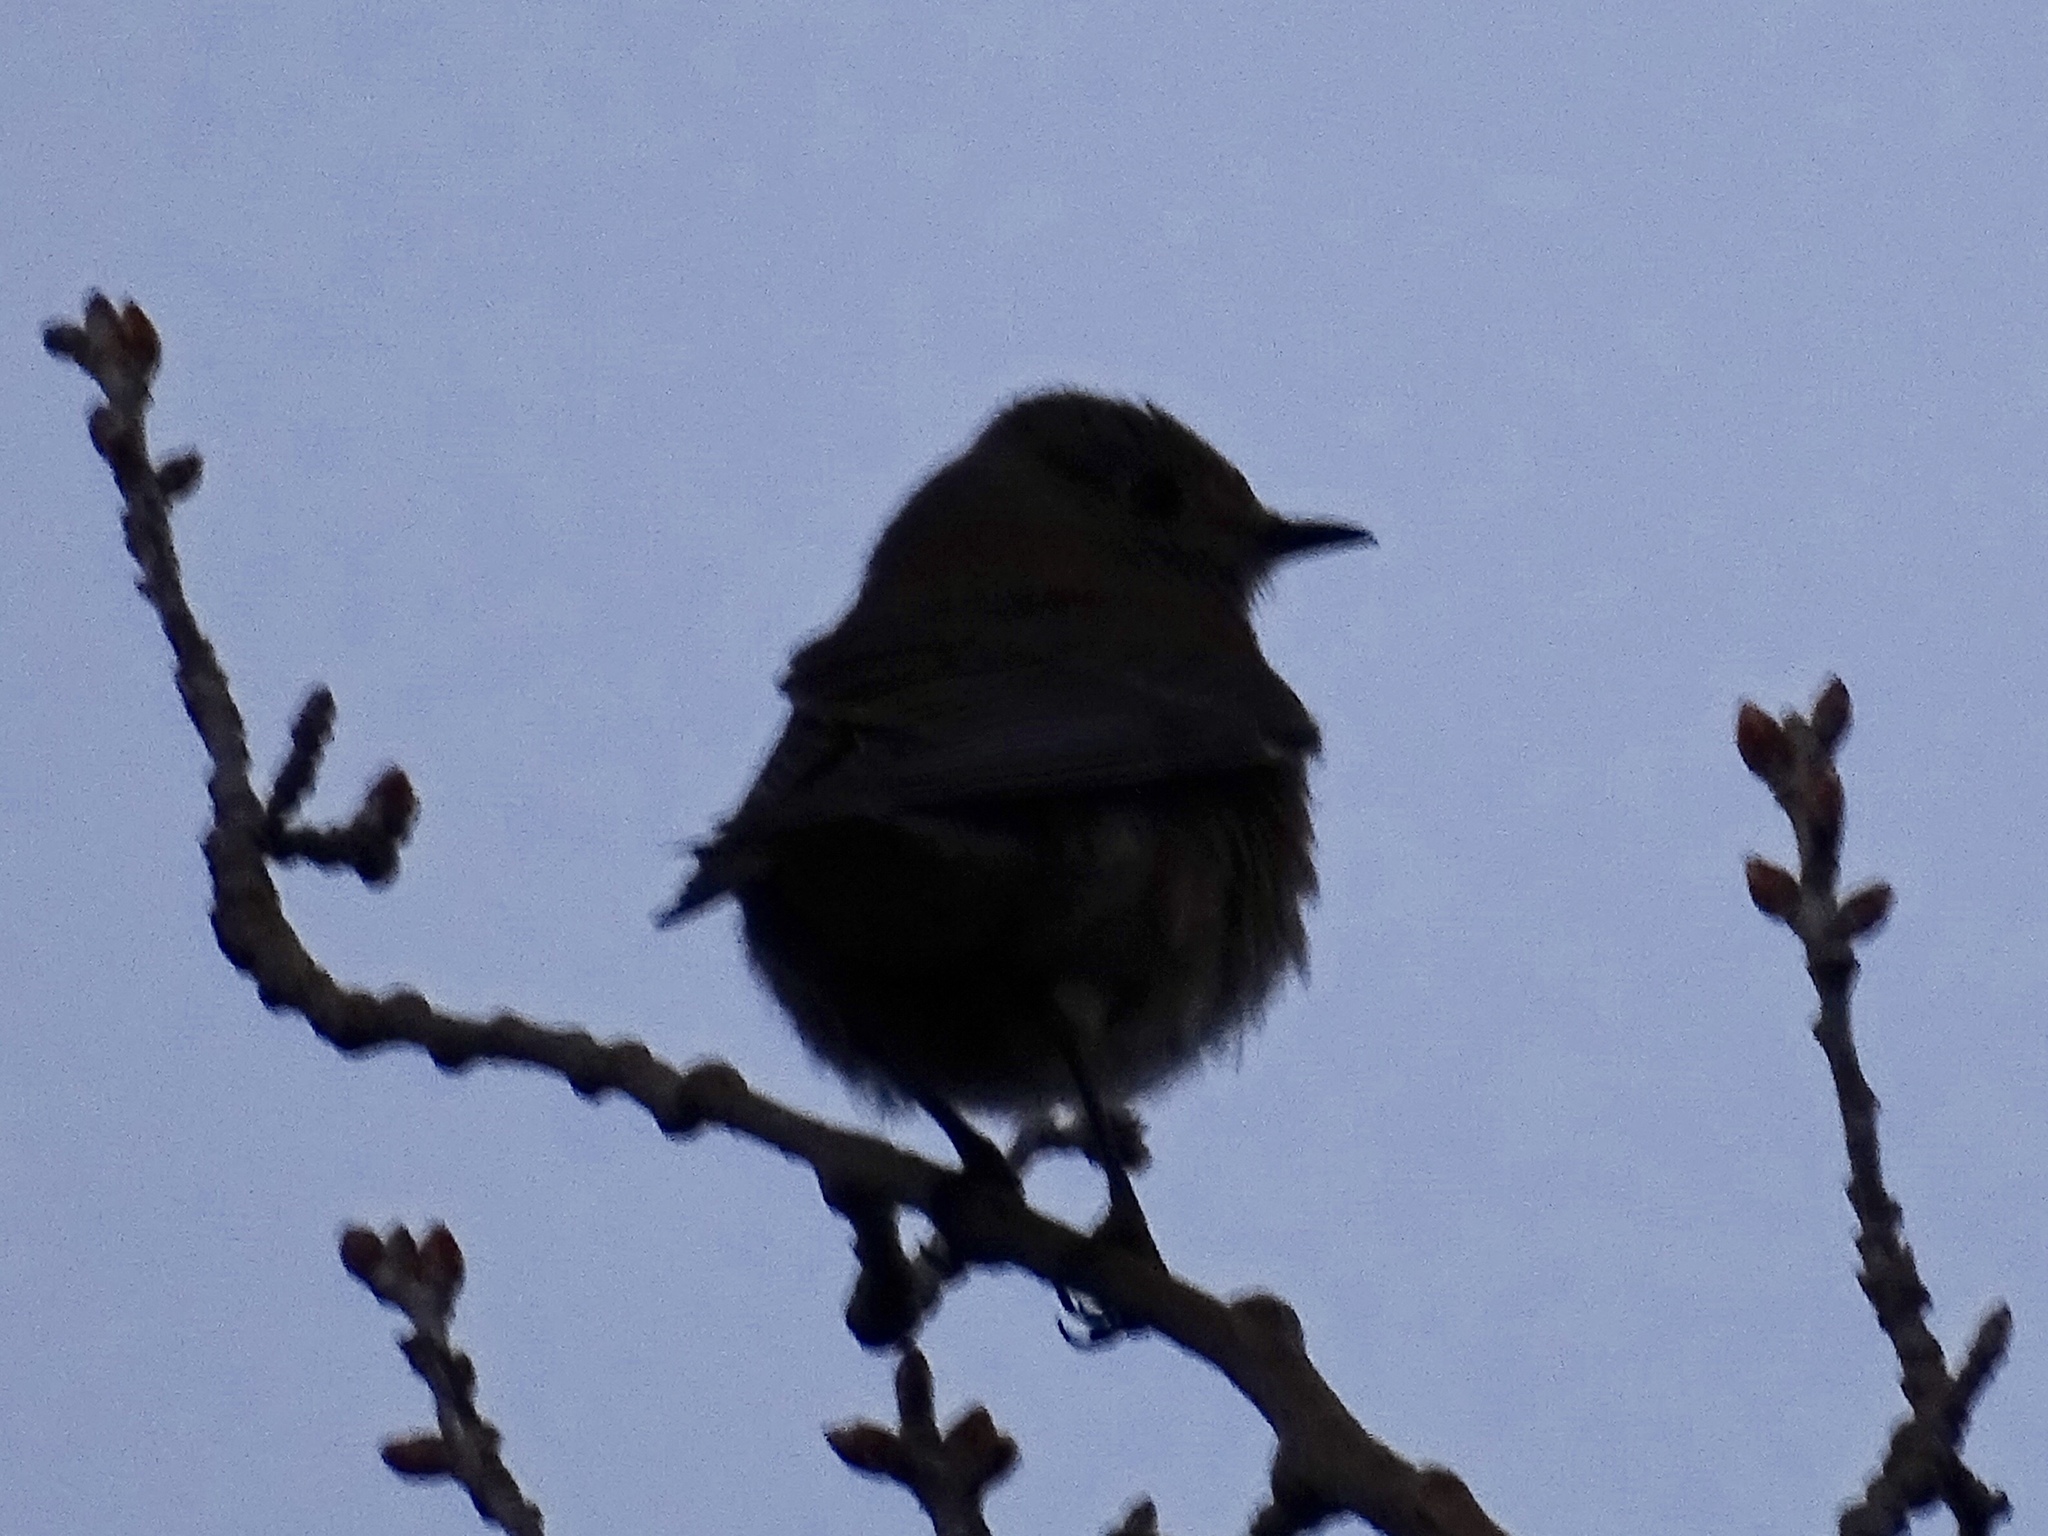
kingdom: Animalia
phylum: Chordata
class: Aves
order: Passeriformes
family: Turdidae
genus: Sialia
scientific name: Sialia mexicana
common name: Western bluebird
